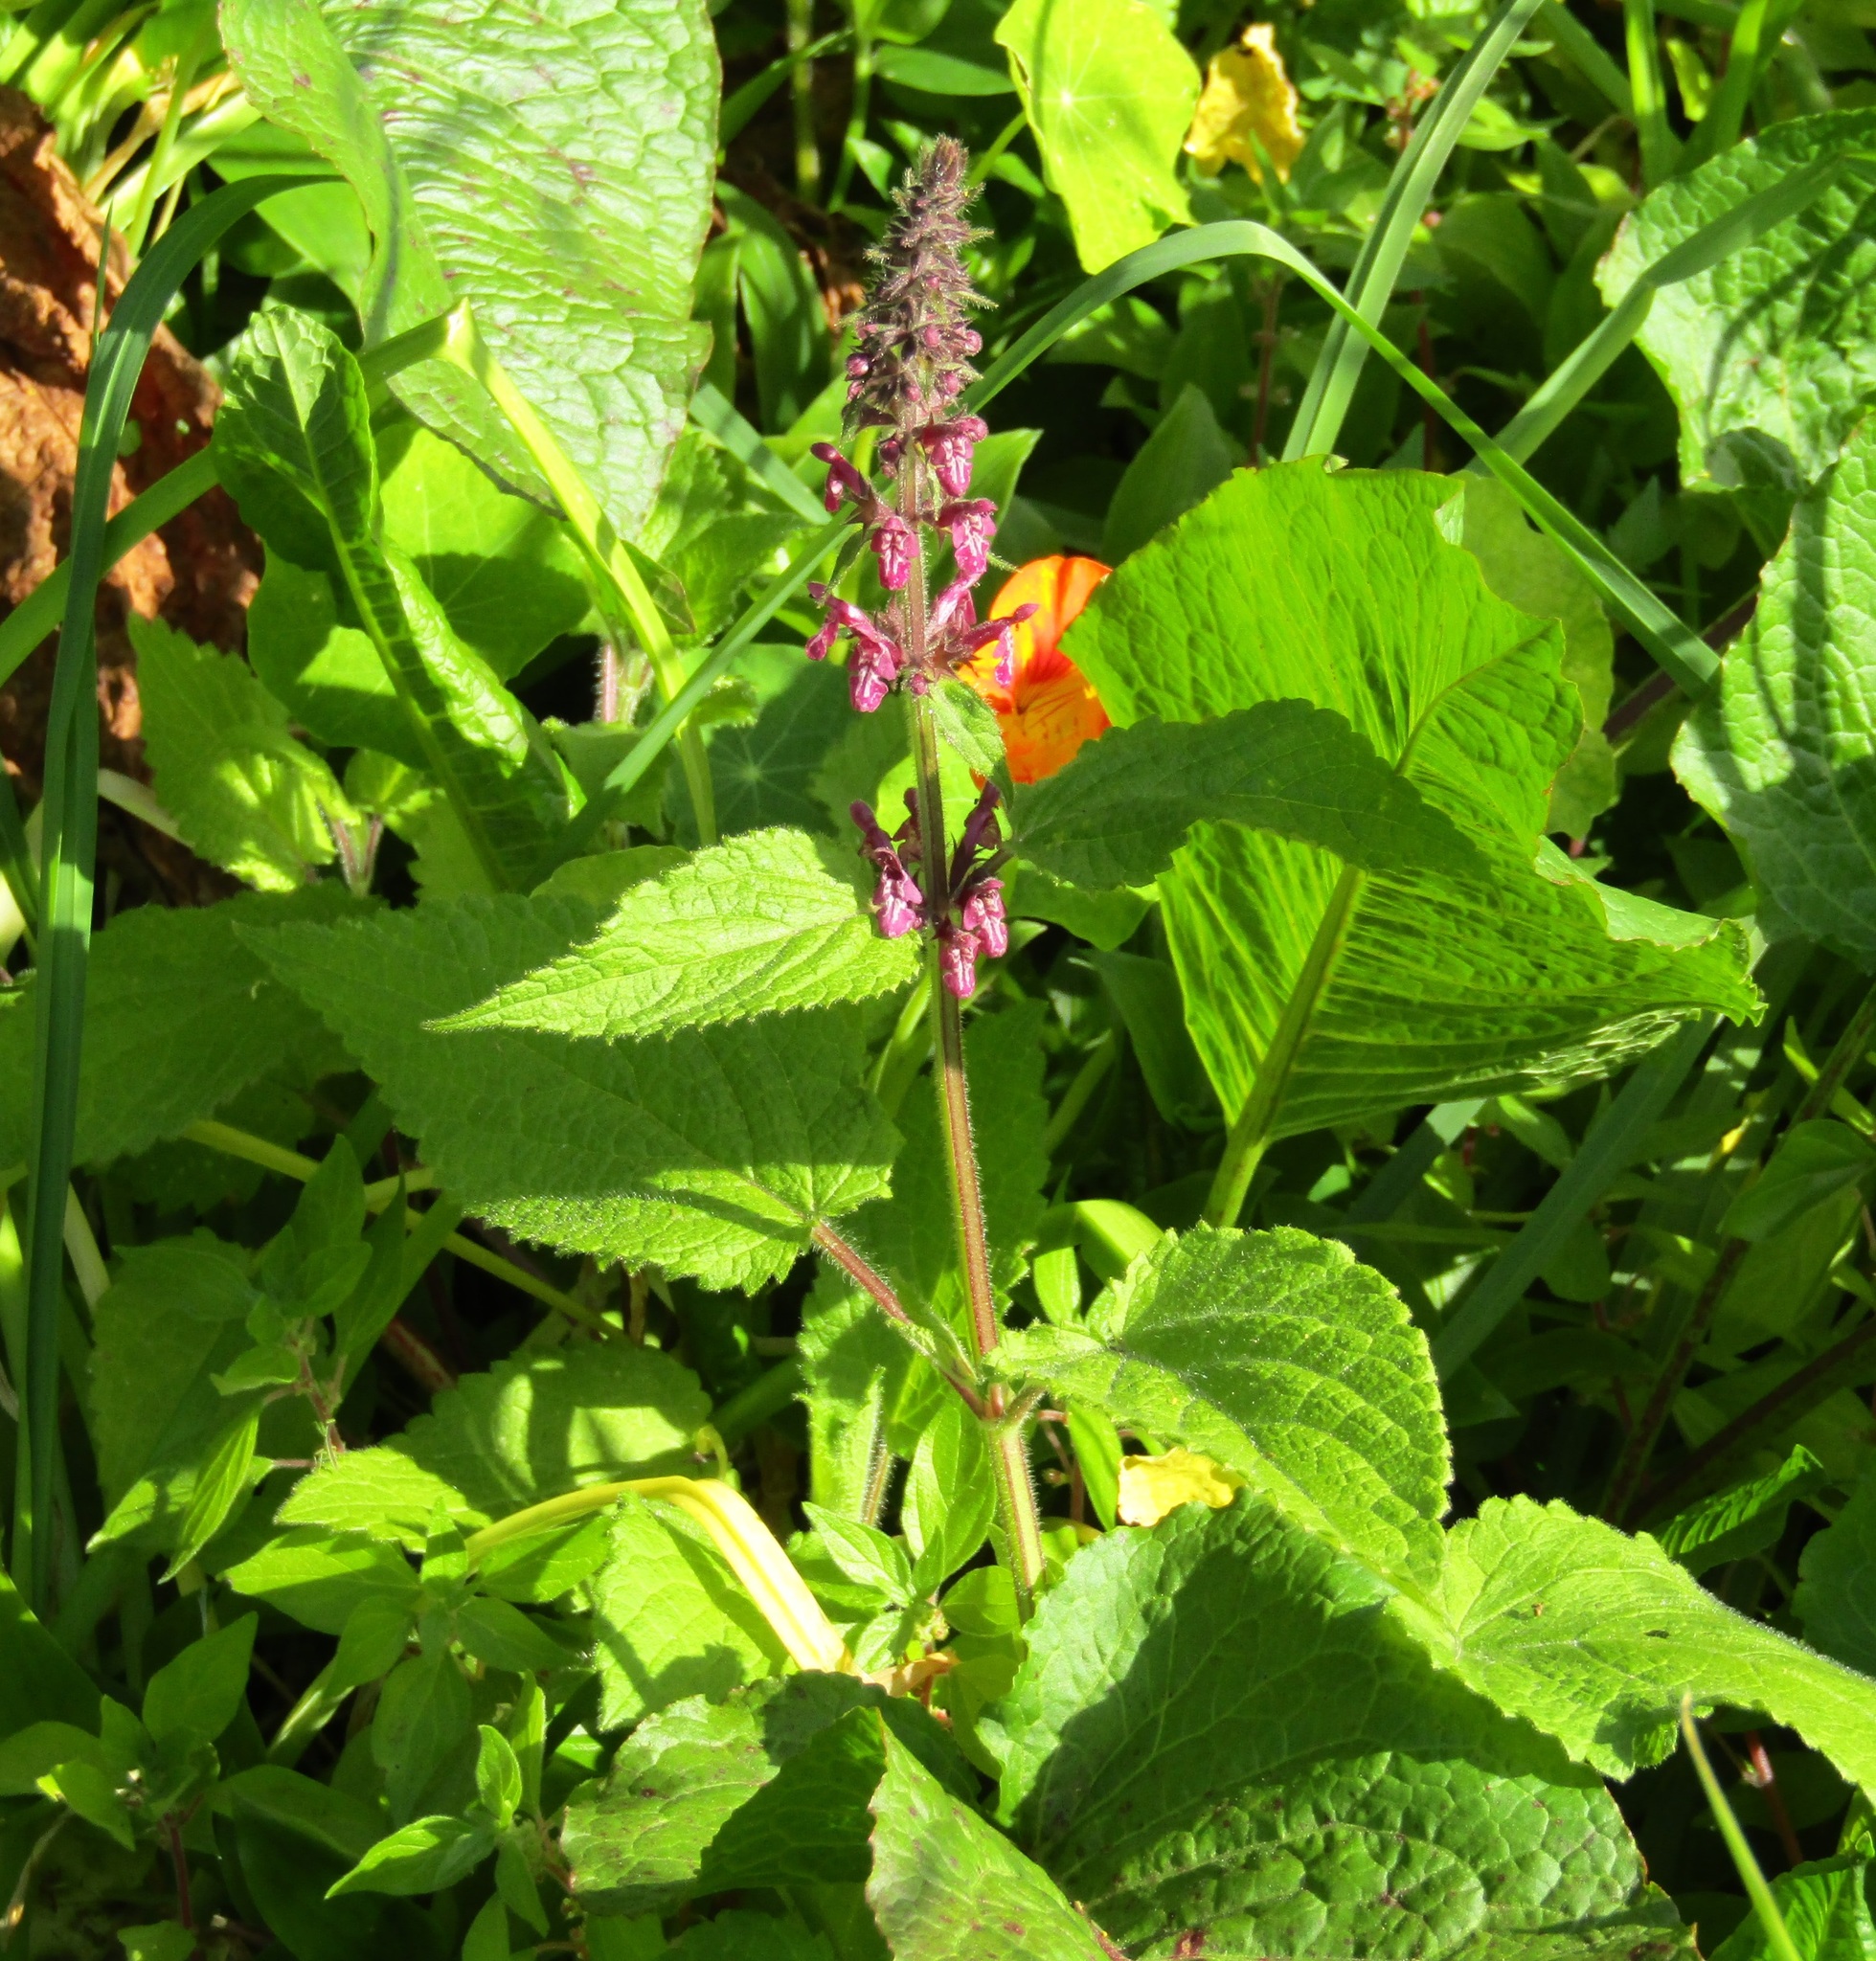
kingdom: Plantae
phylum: Tracheophyta
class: Magnoliopsida
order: Lamiales
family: Lamiaceae
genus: Stachys
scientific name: Stachys sylvatica
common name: Hedge woundwort
